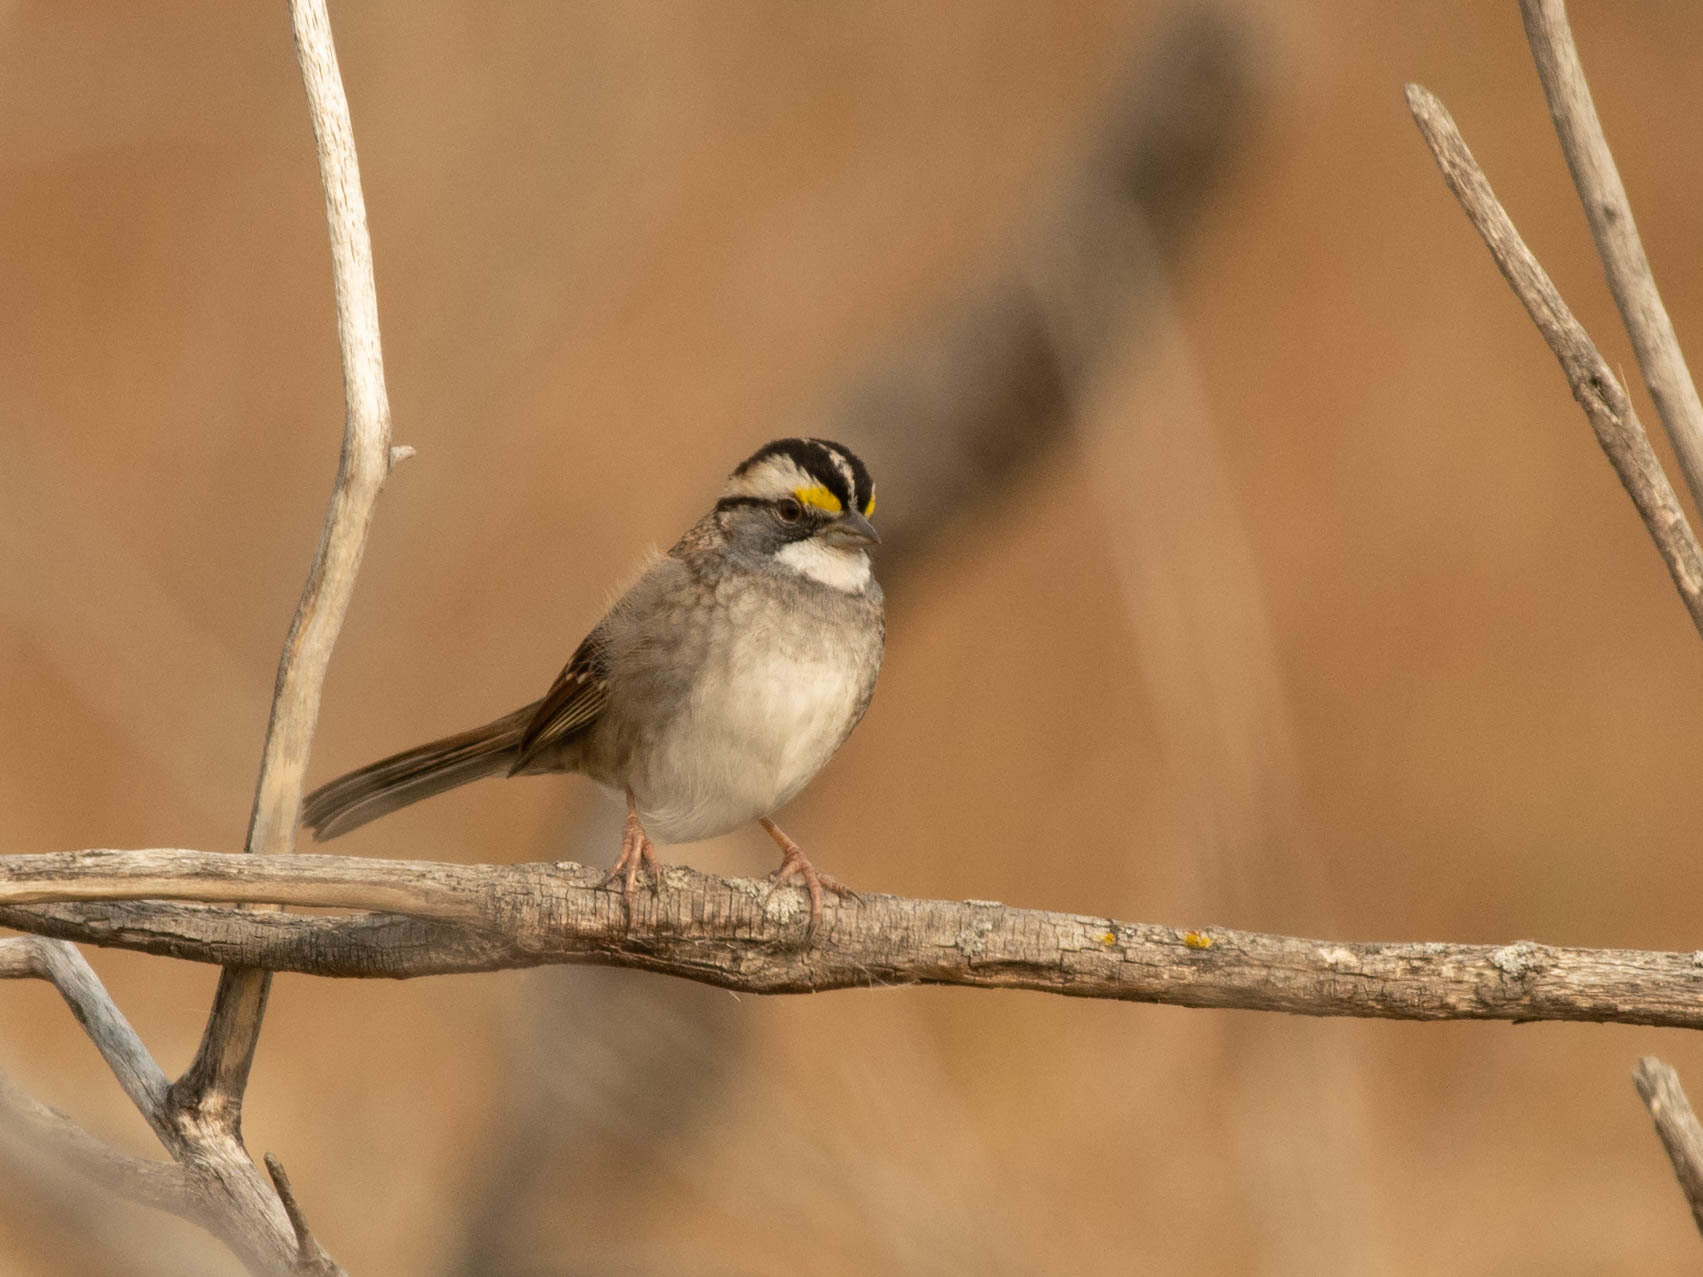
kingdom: Animalia
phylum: Chordata
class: Aves
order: Passeriformes
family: Passerellidae
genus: Zonotrichia
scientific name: Zonotrichia albicollis
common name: White-throated sparrow
